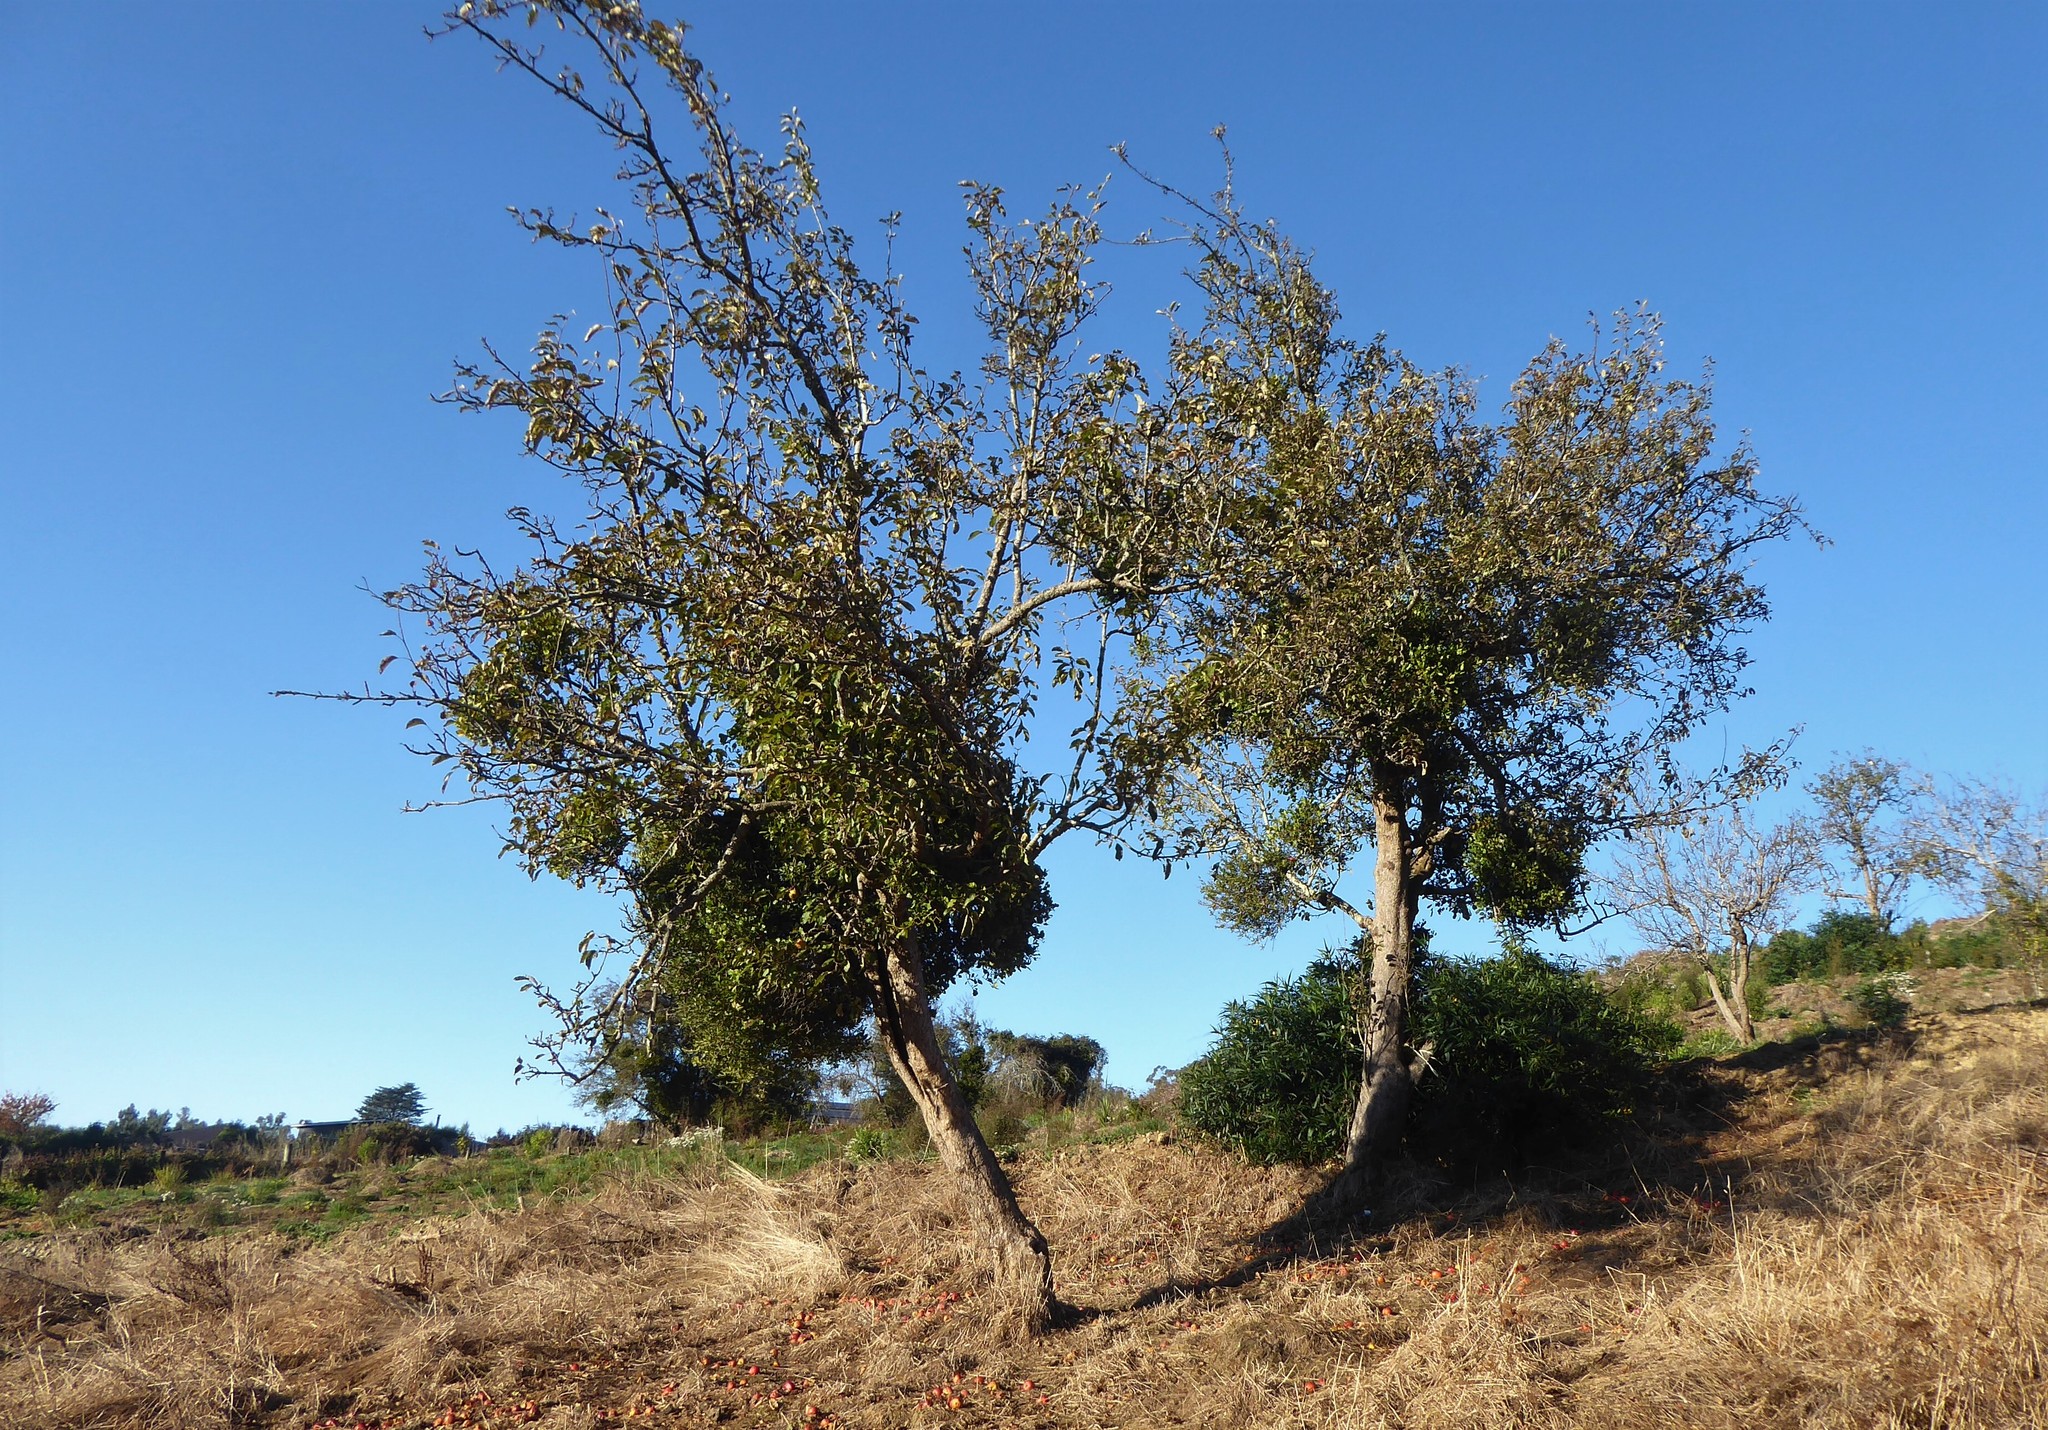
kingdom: Plantae
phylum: Tracheophyta
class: Magnoliopsida
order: Santalales
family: Loranthaceae
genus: Tupeia
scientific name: Tupeia antarctica
